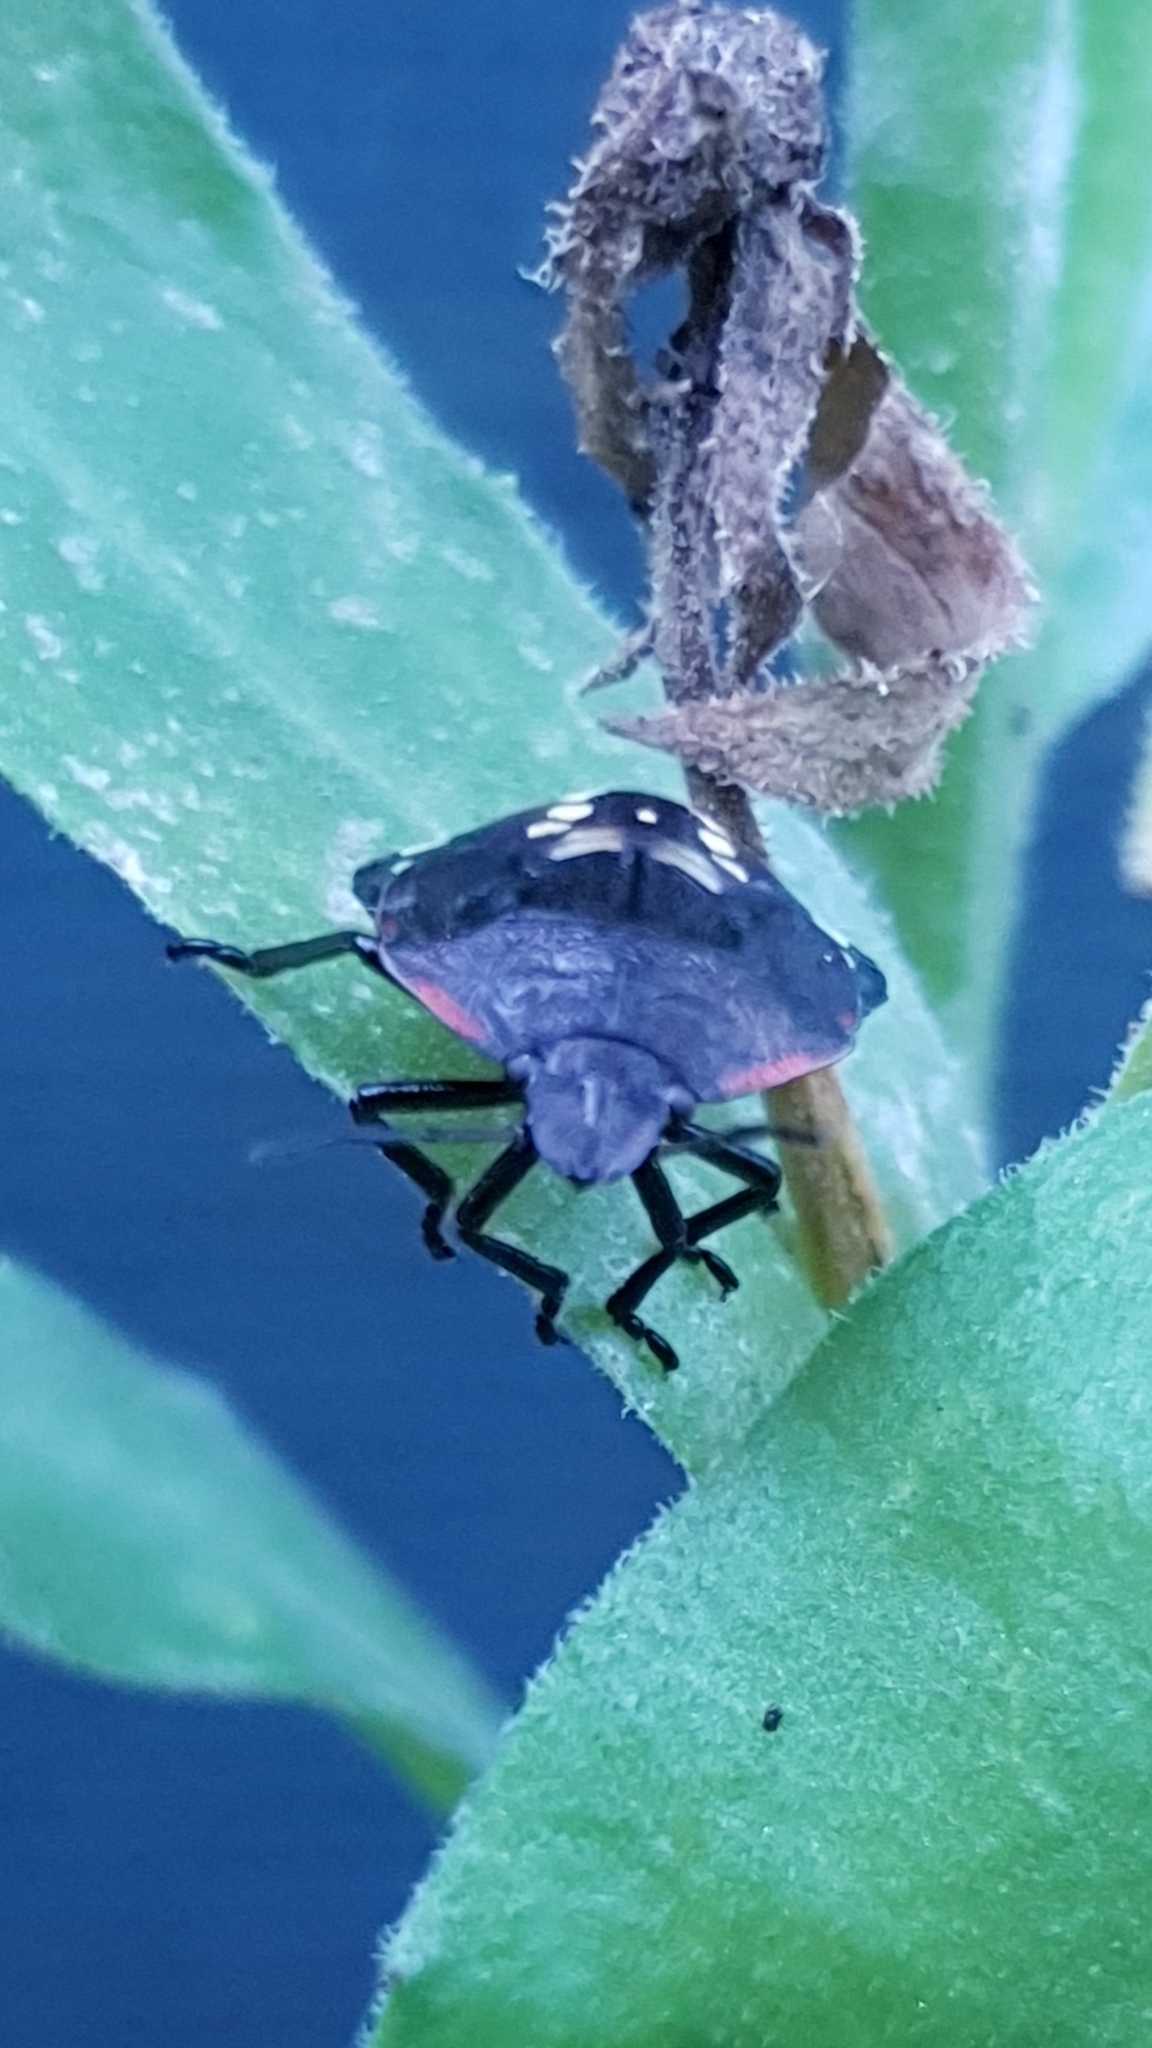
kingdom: Animalia
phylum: Arthropoda
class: Insecta
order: Hemiptera
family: Pentatomidae
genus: Nezara
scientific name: Nezara viridula
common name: Southern green stink bug
